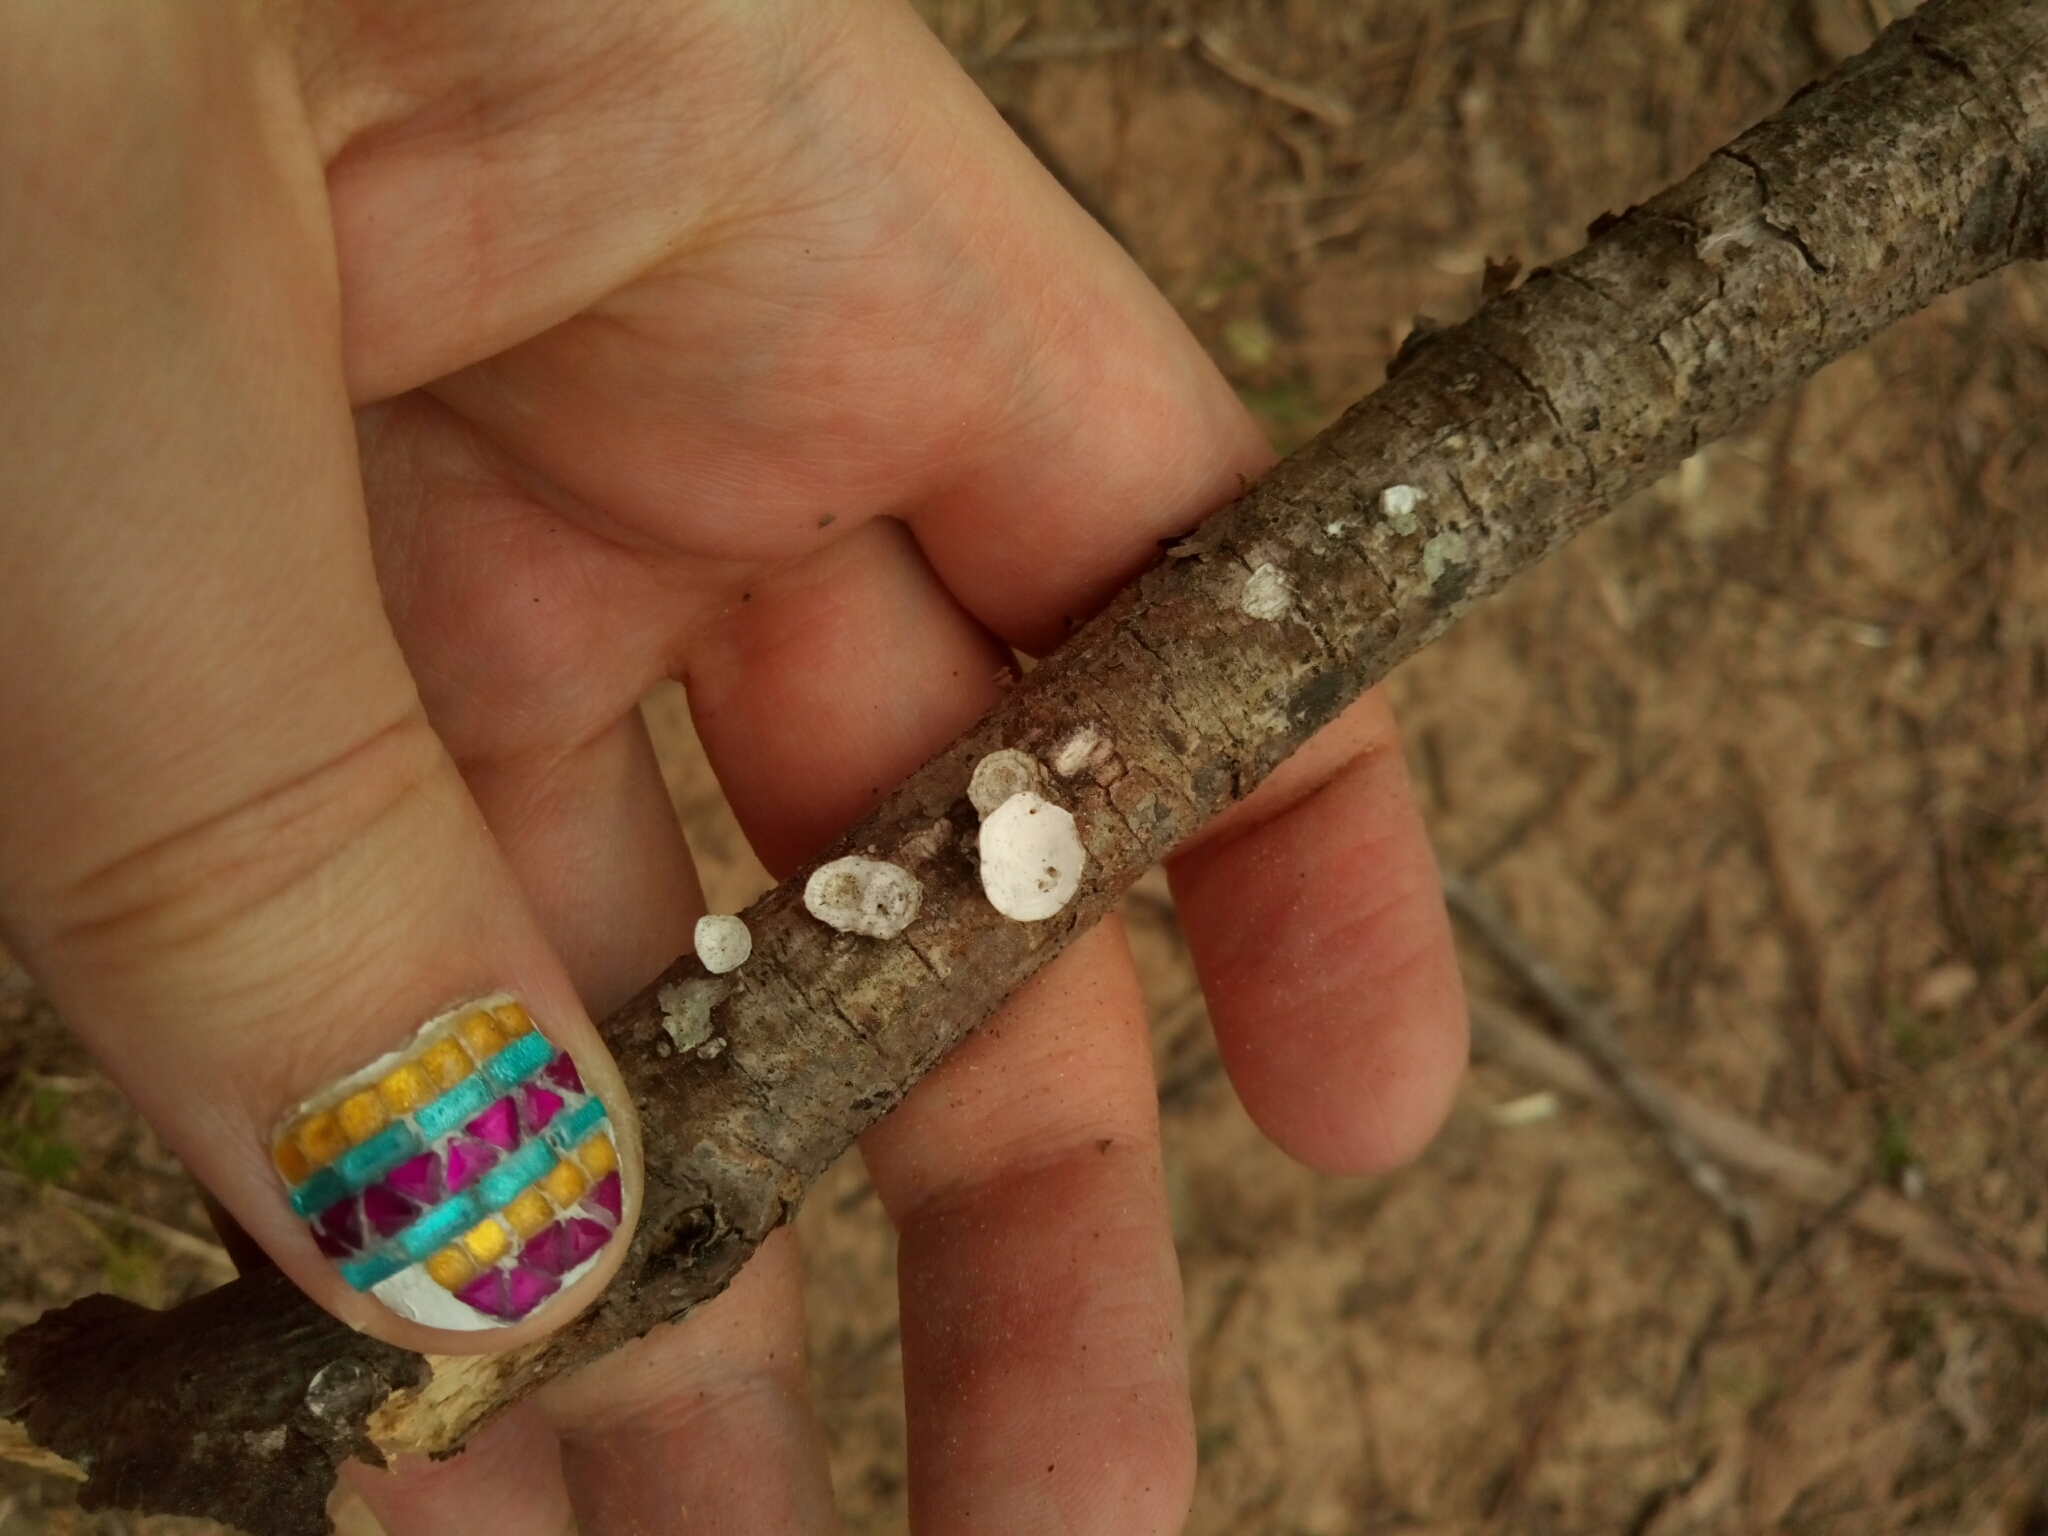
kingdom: Fungi
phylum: Basidiomycota
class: Agaricomycetes
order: Polyporales
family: Polyporaceae
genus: Poronidulus
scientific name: Poronidulus conchifer
